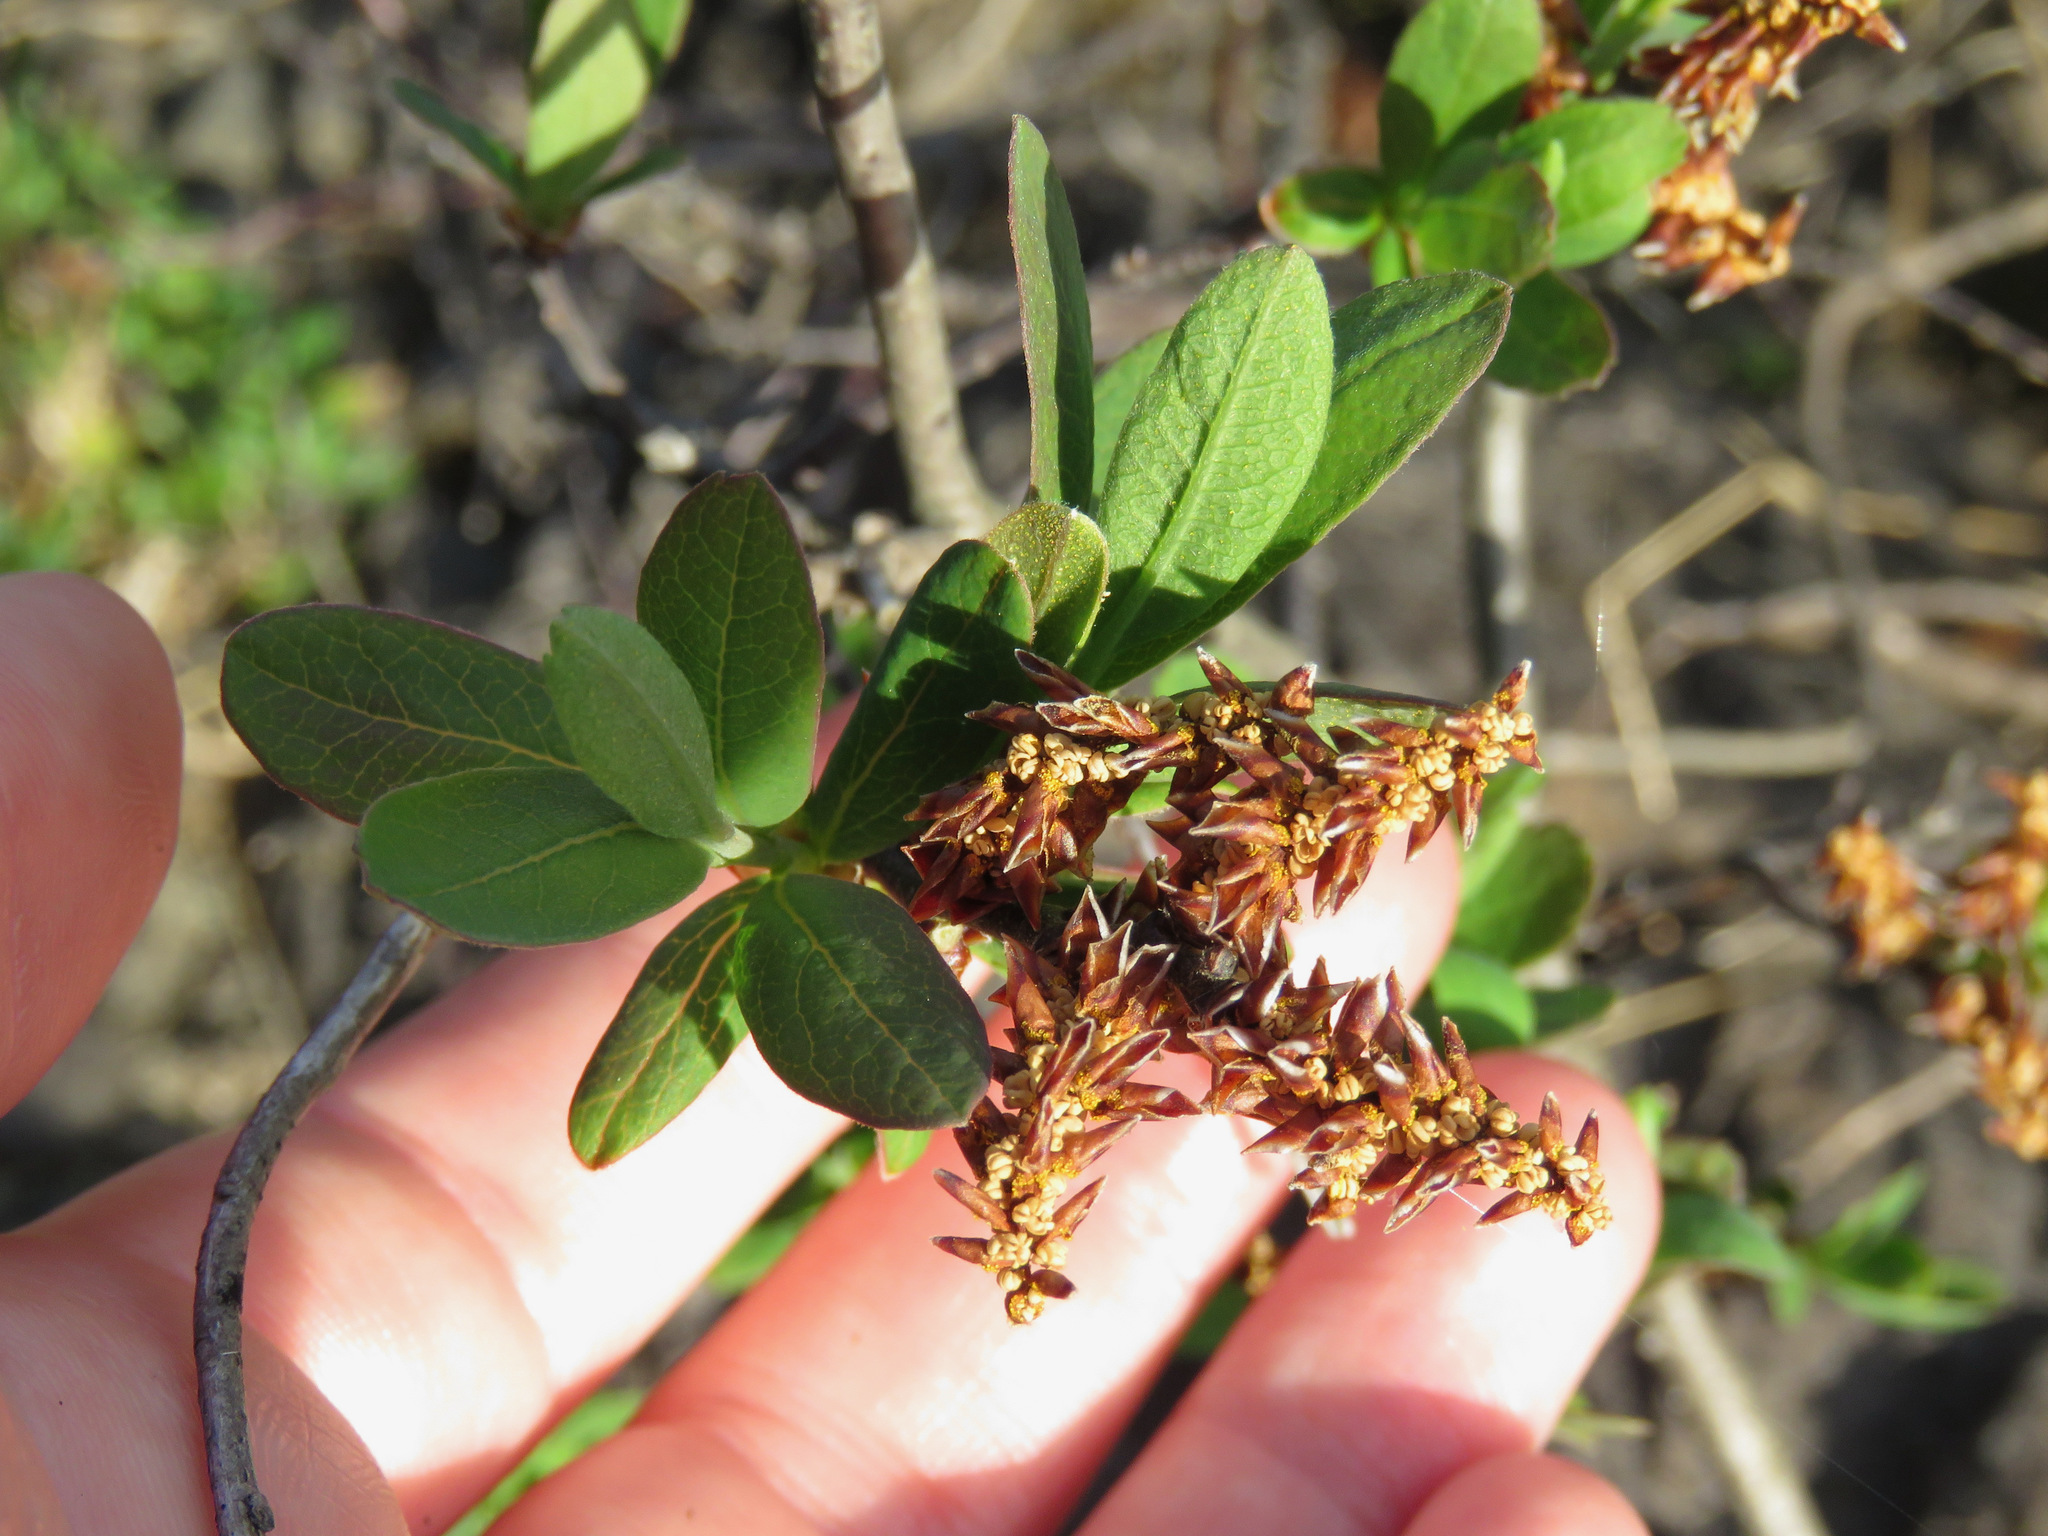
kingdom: Plantae
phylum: Tracheophyta
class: Magnoliopsida
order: Fagales
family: Myricaceae
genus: Myrica
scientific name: Myrica gale
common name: Sweet gale
